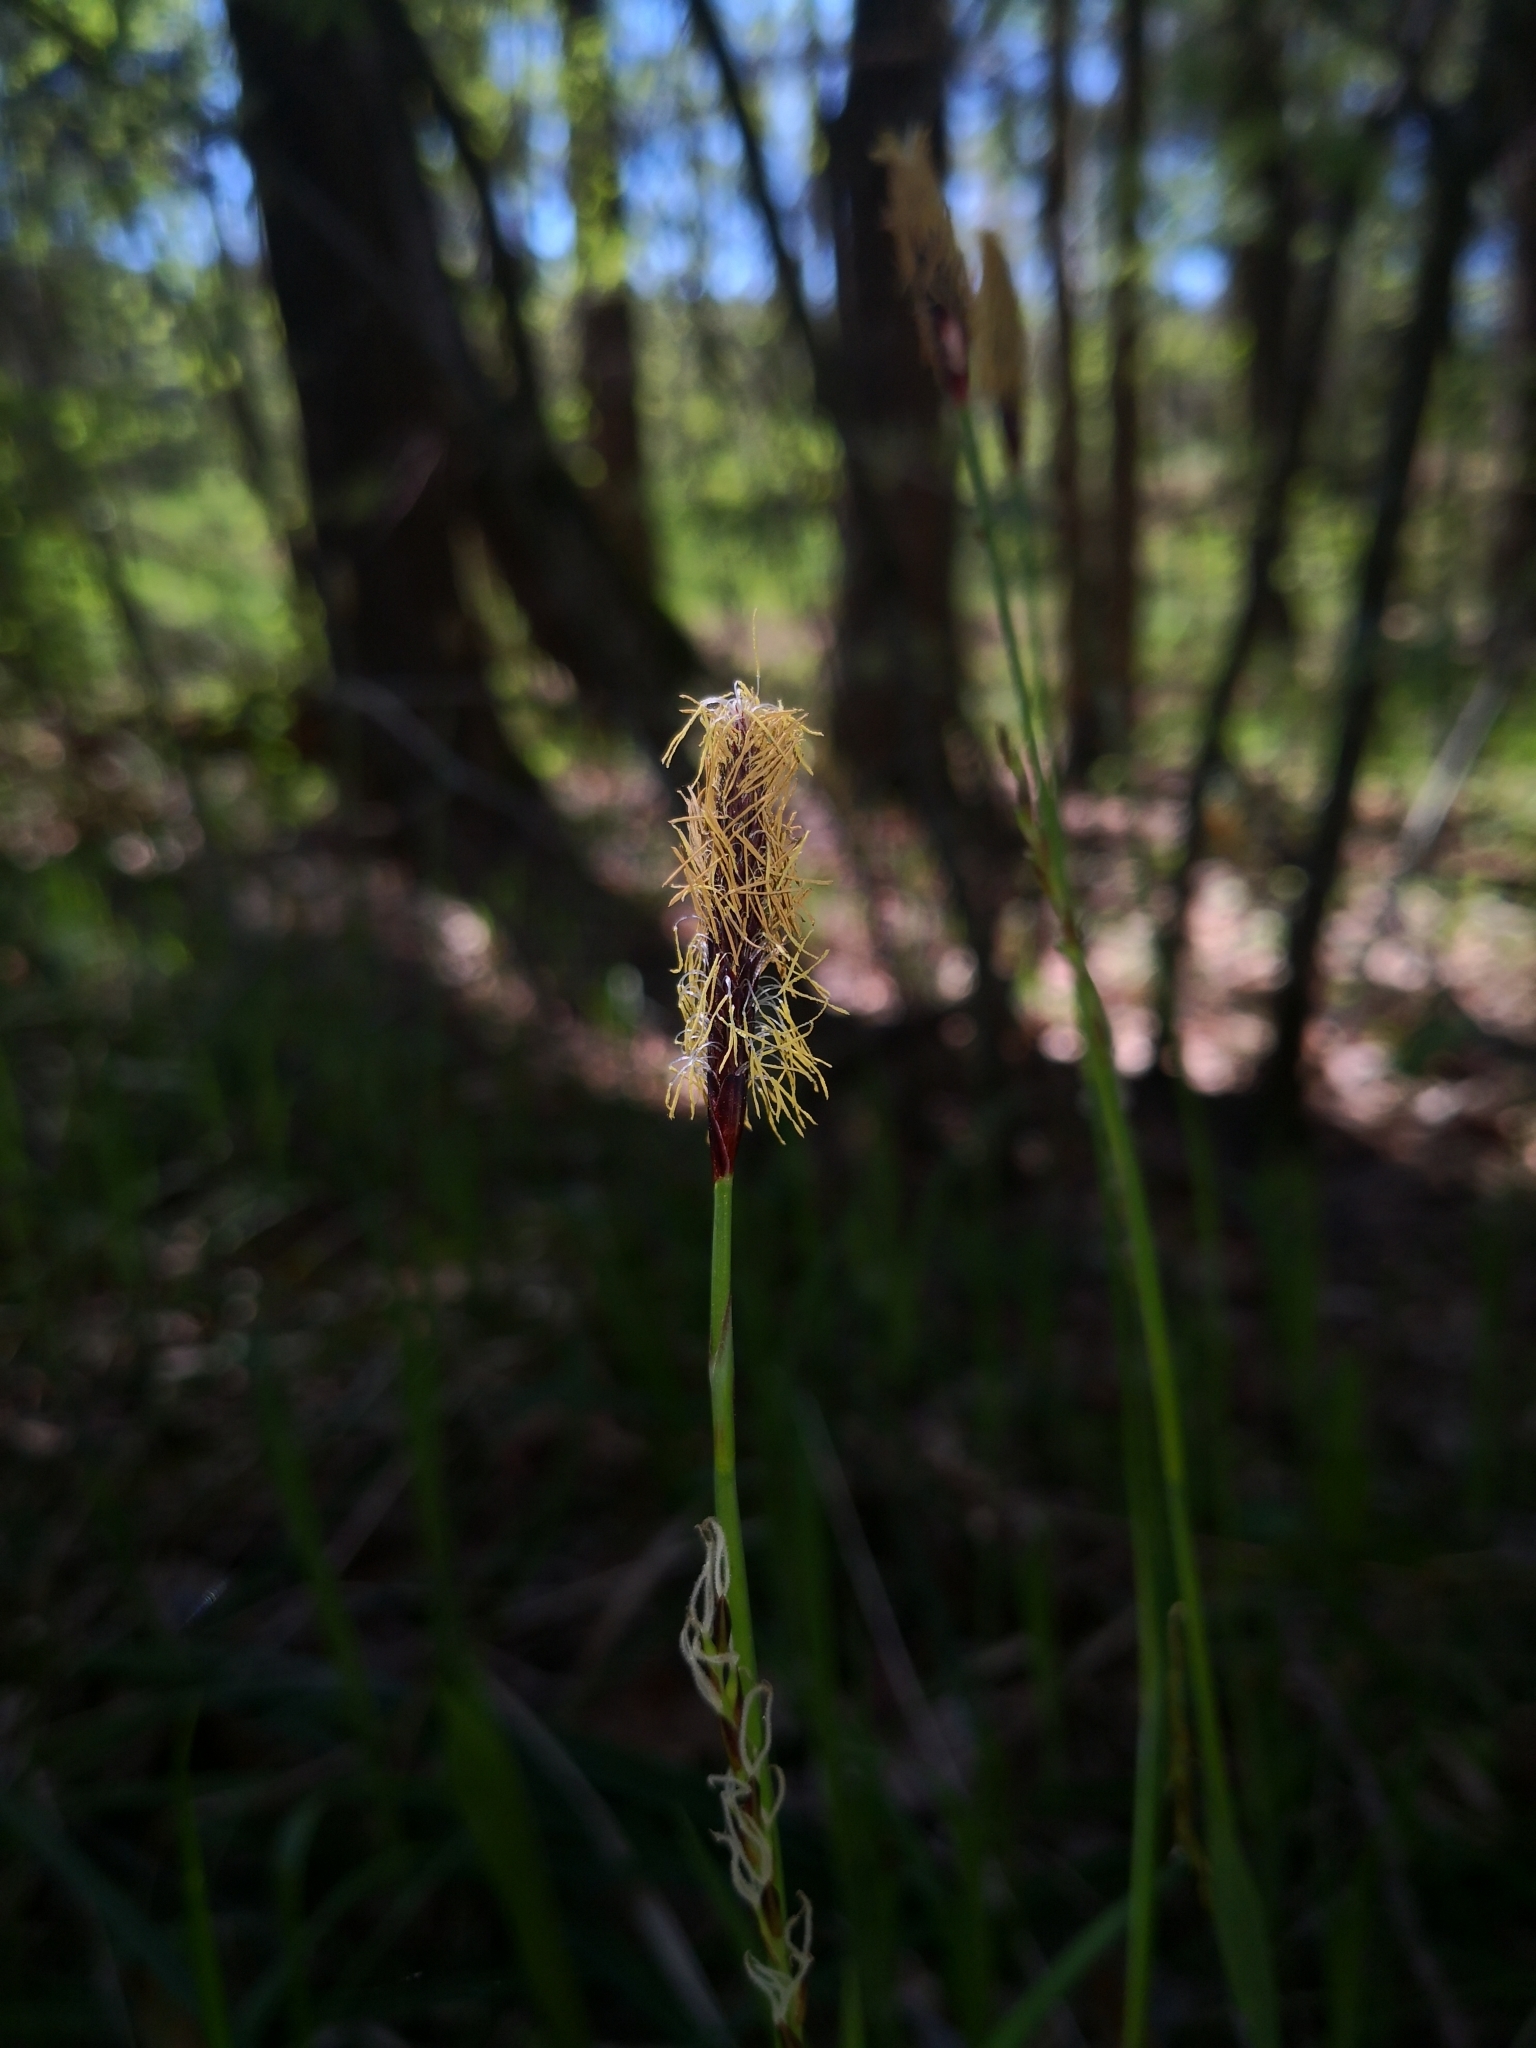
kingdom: Plantae
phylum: Tracheophyta
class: Liliopsida
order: Poales
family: Cyperaceae
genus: Carex
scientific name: Carex pilosa
